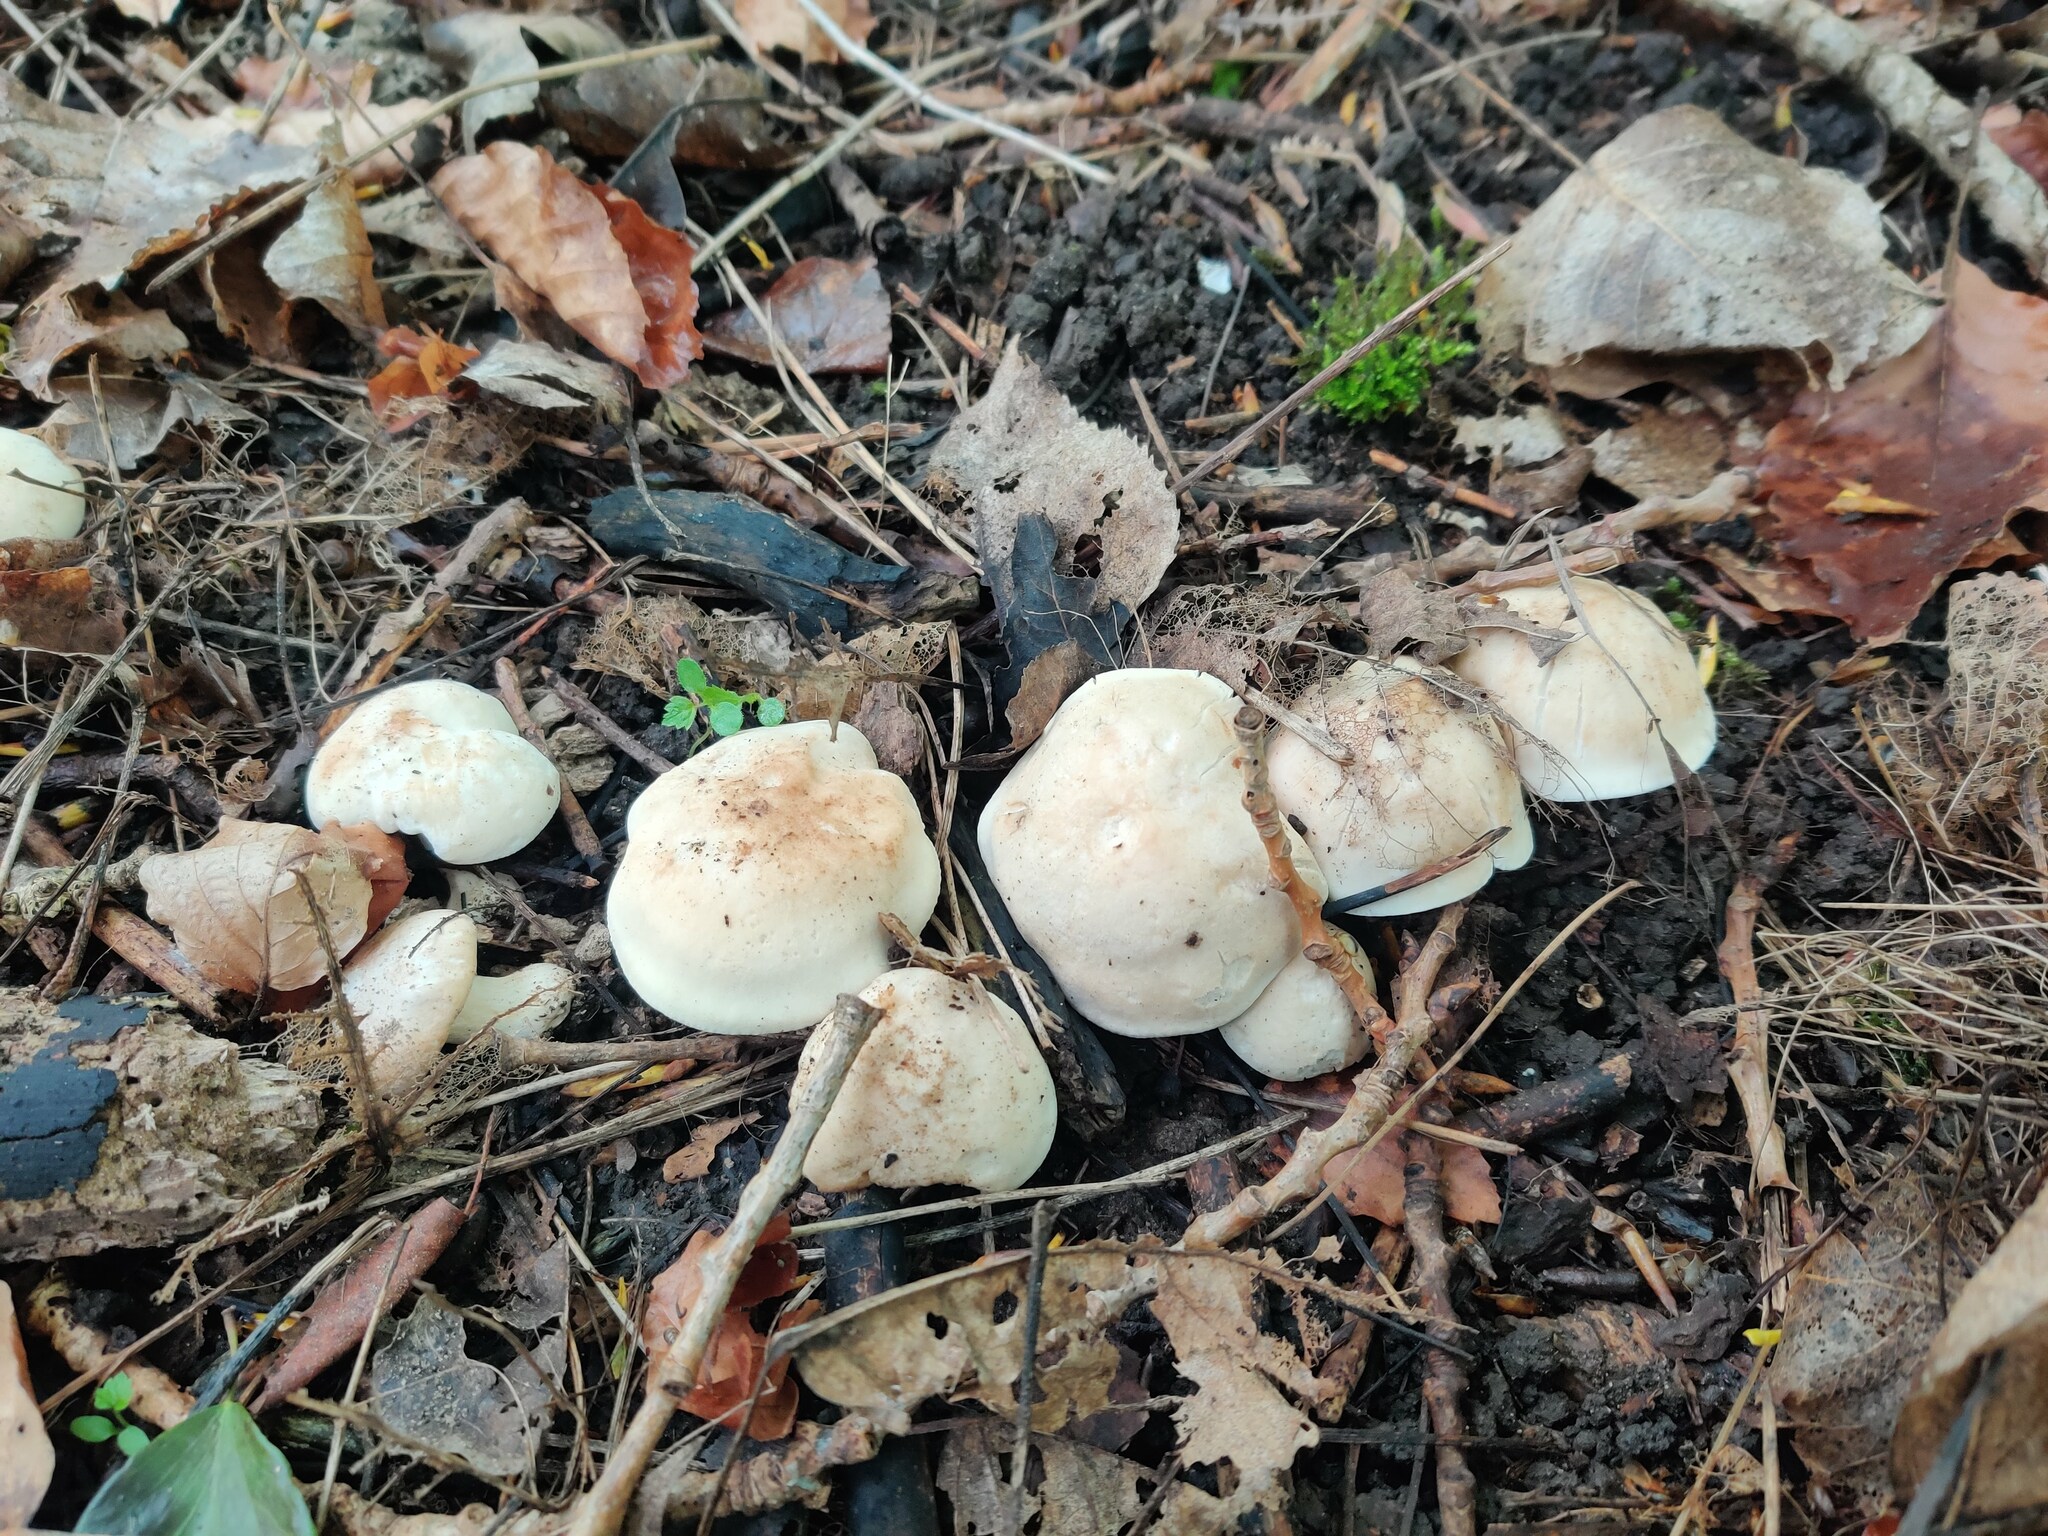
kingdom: Fungi
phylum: Basidiomycota
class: Agaricomycetes
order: Agaricales
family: Lyophyllaceae
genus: Calocybe
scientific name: Calocybe gambosa
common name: St. george's mushroom
